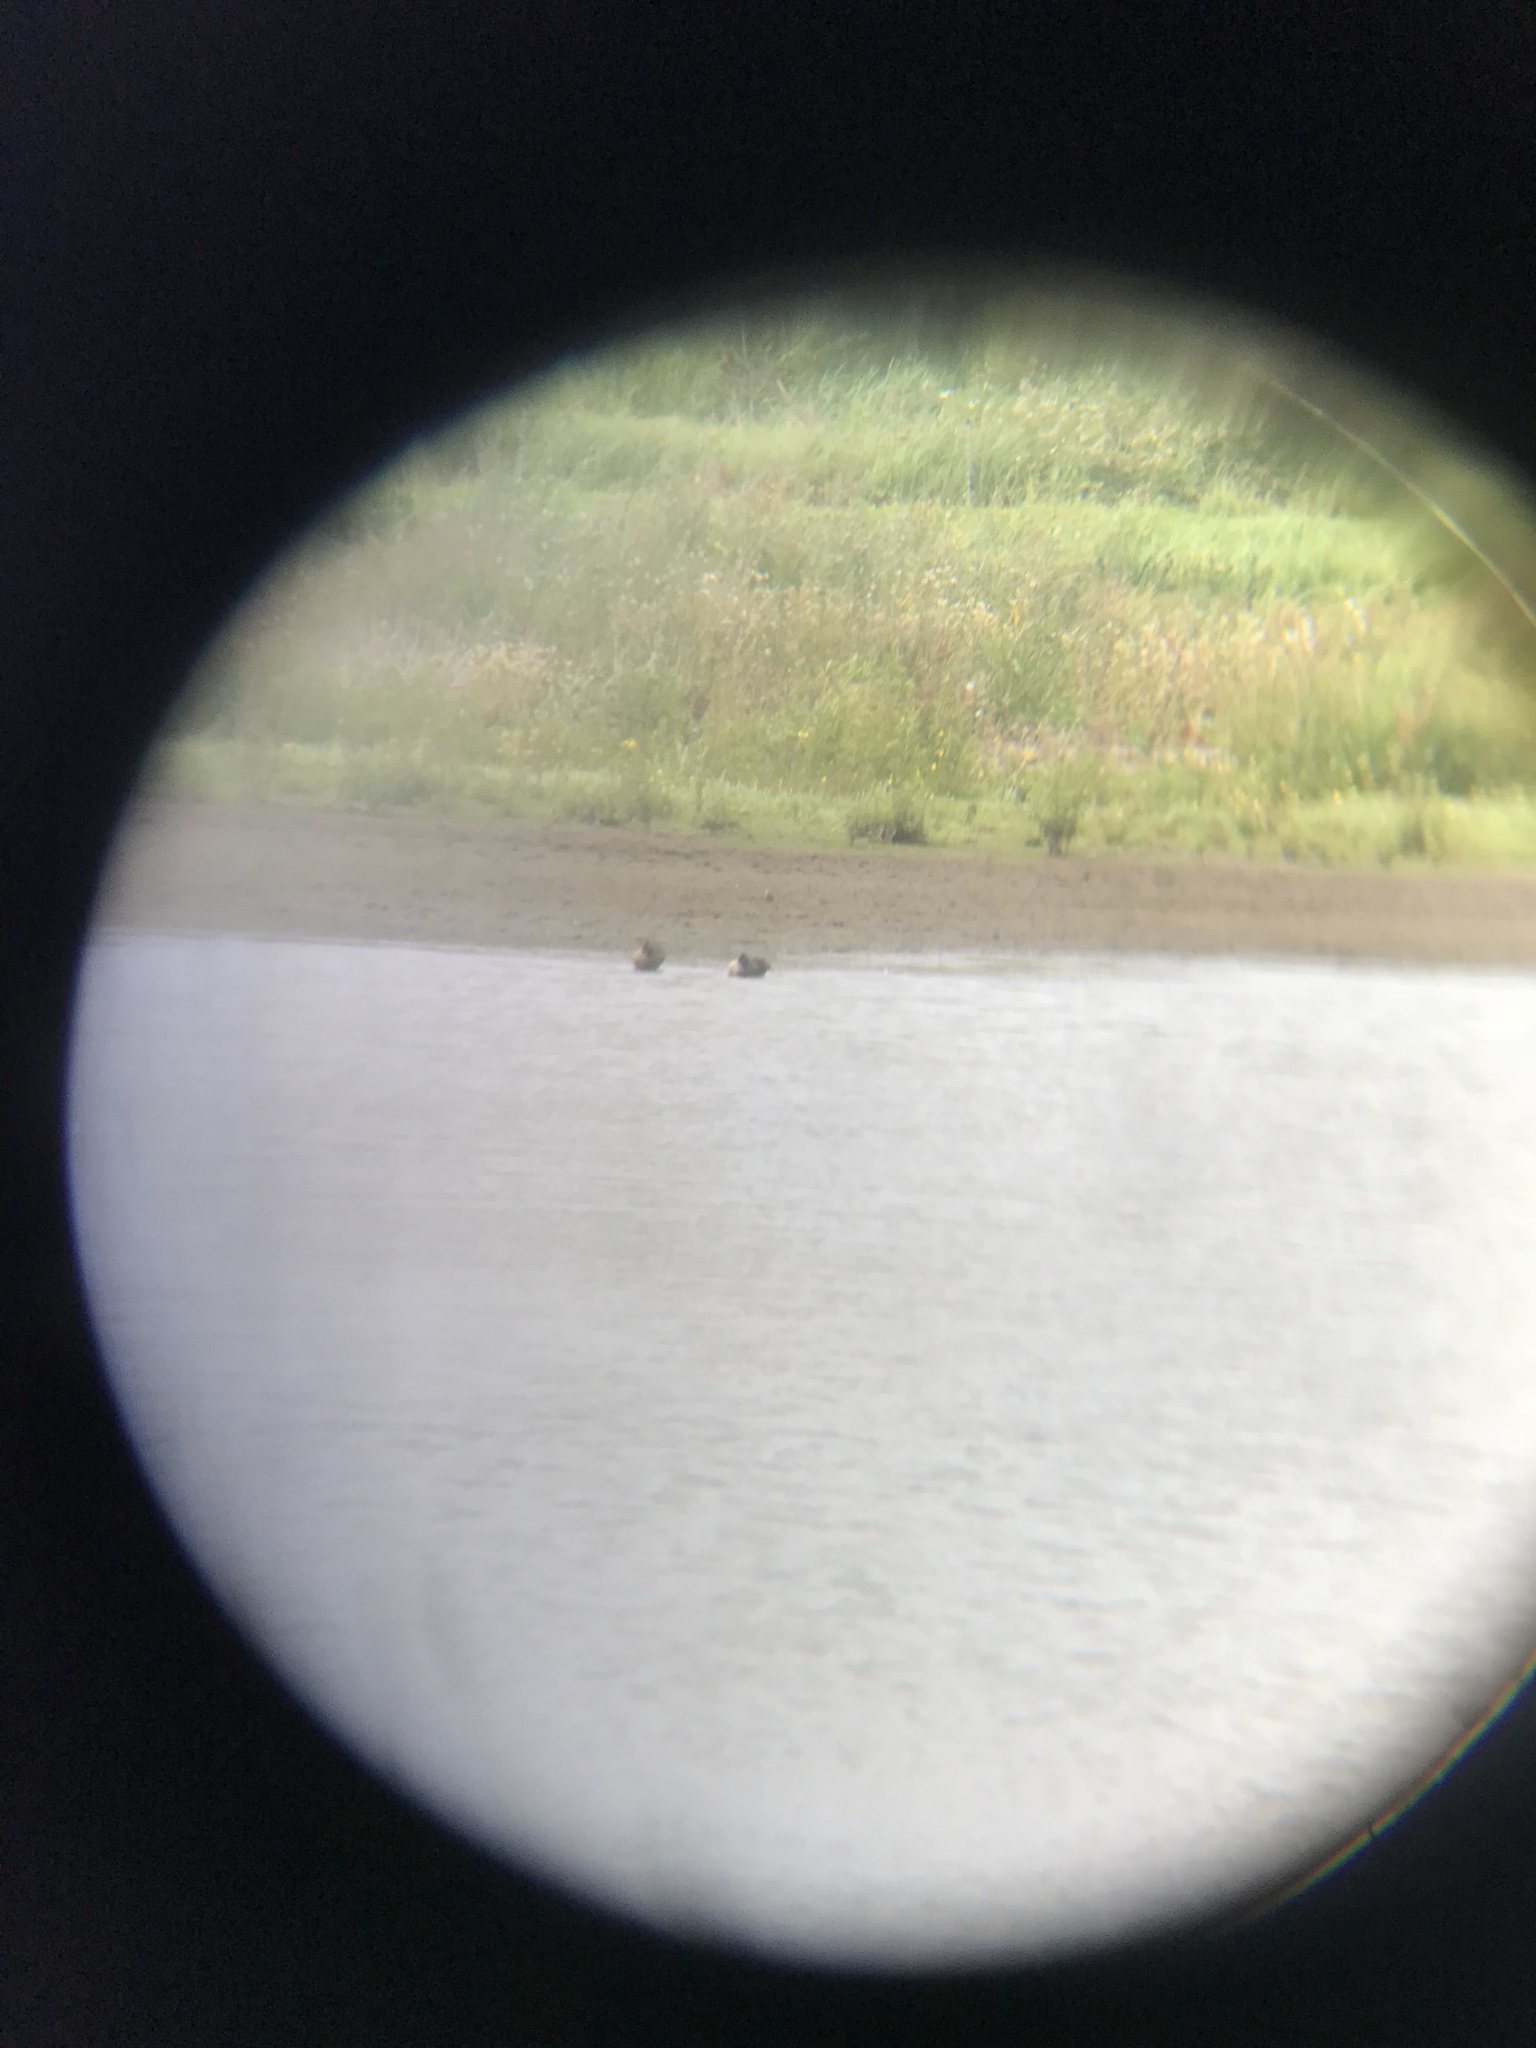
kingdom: Animalia
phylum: Chordata
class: Aves
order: Anseriformes
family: Anatidae
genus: Anas
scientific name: Anas crecca
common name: Eurasian teal
